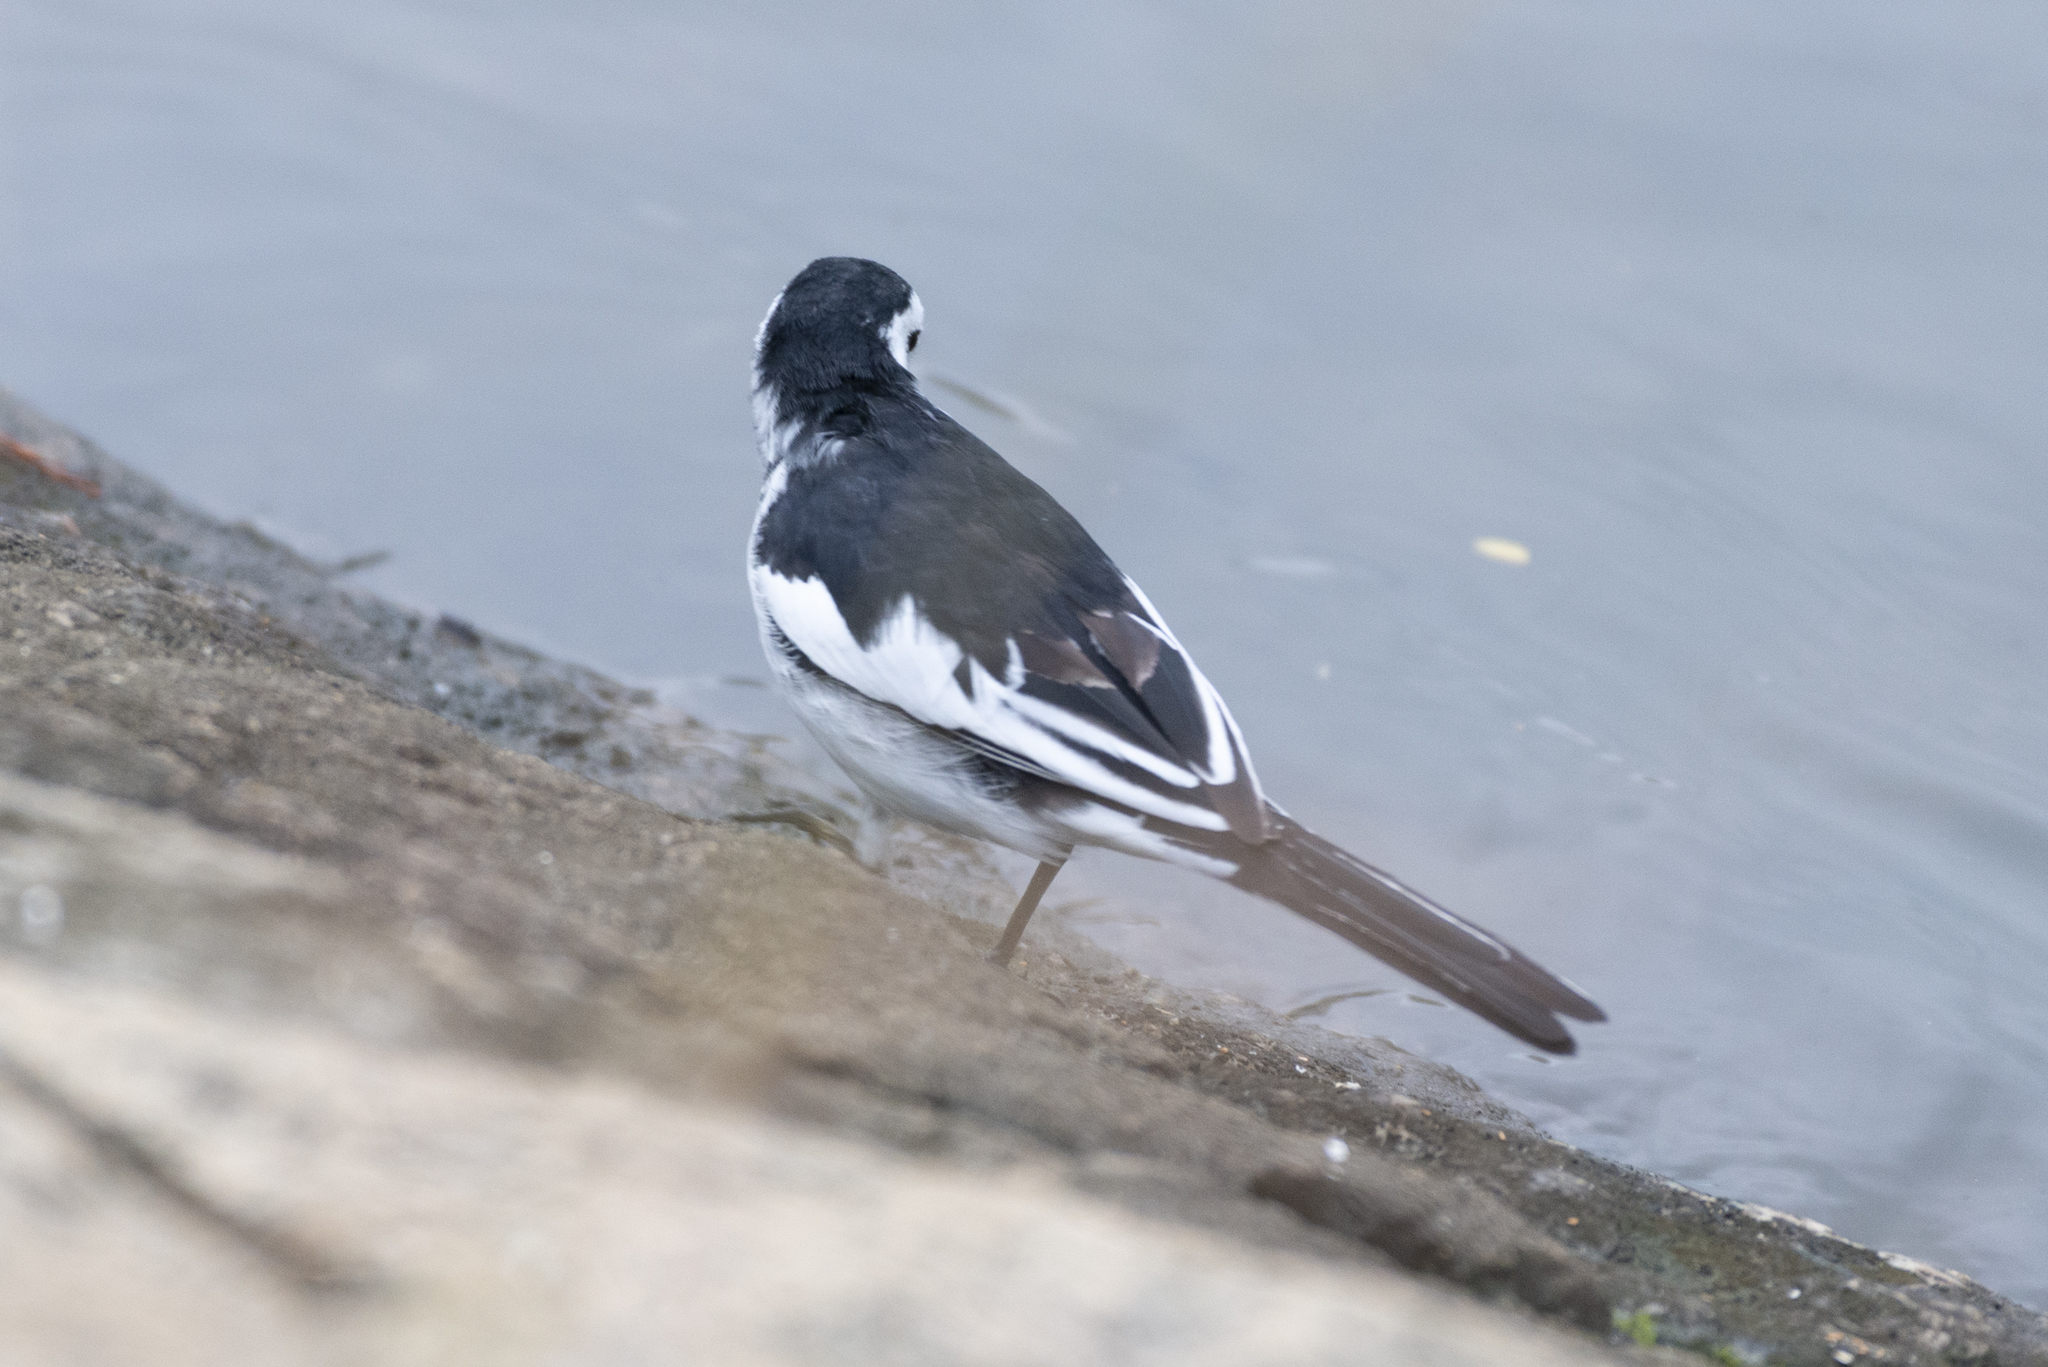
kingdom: Animalia
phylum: Chordata
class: Aves
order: Passeriformes
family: Motacillidae
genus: Motacilla
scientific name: Motacilla alba
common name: White wagtail
